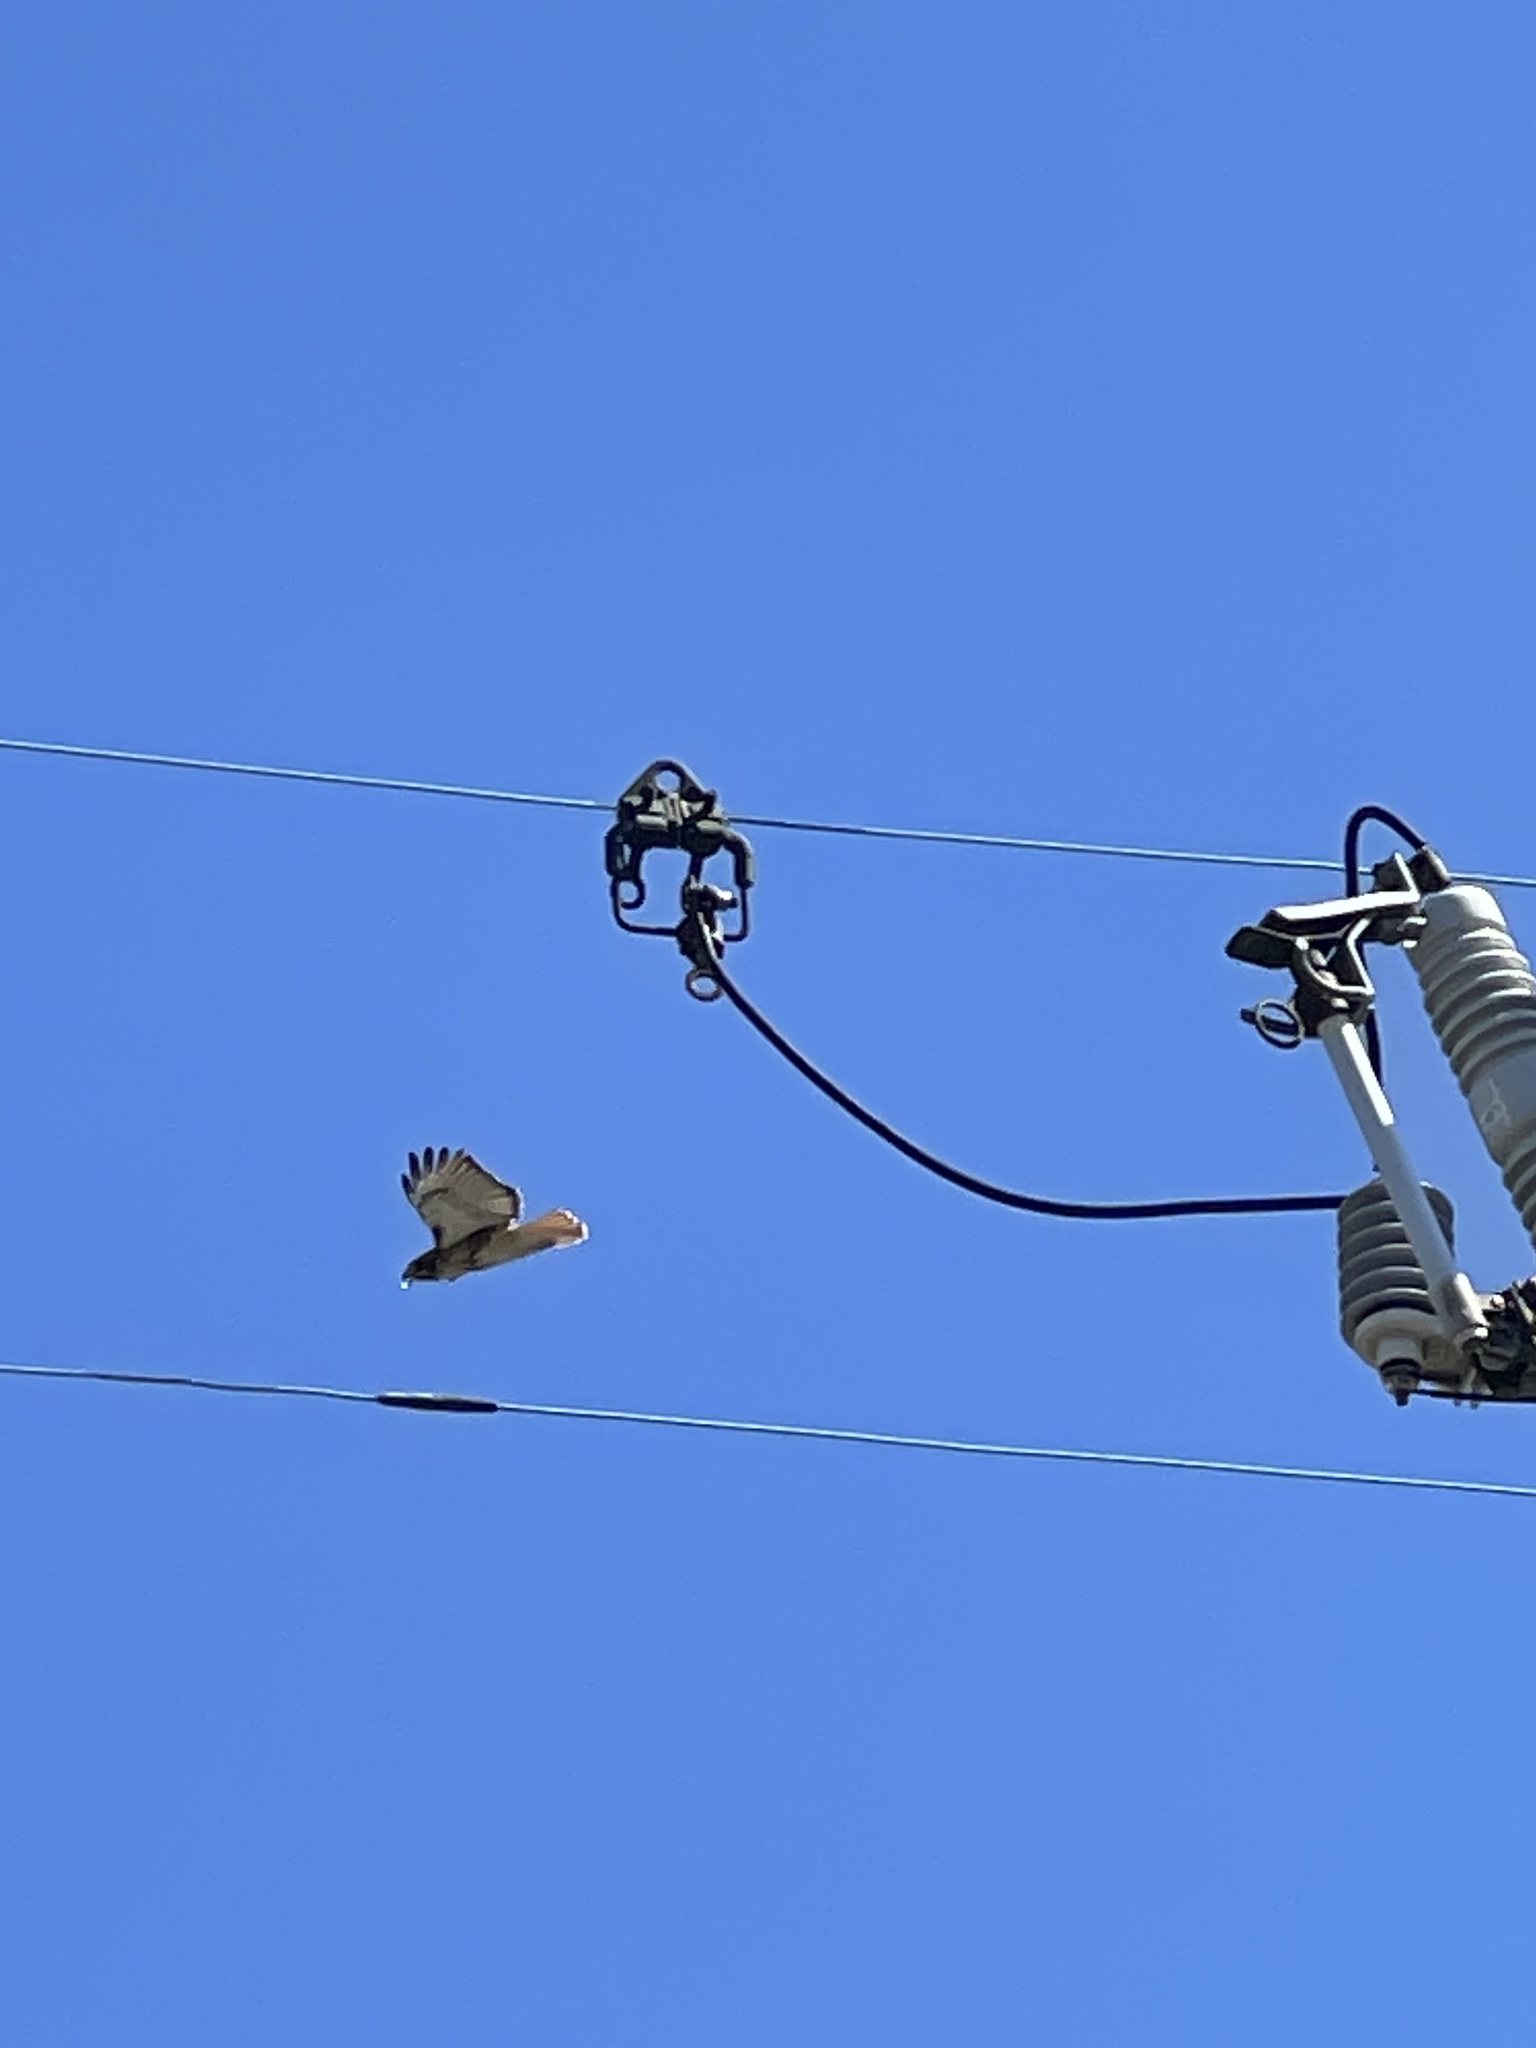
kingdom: Animalia
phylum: Chordata
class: Aves
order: Accipitriformes
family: Accipitridae
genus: Buteo
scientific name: Buteo jamaicensis
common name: Red-tailed hawk
